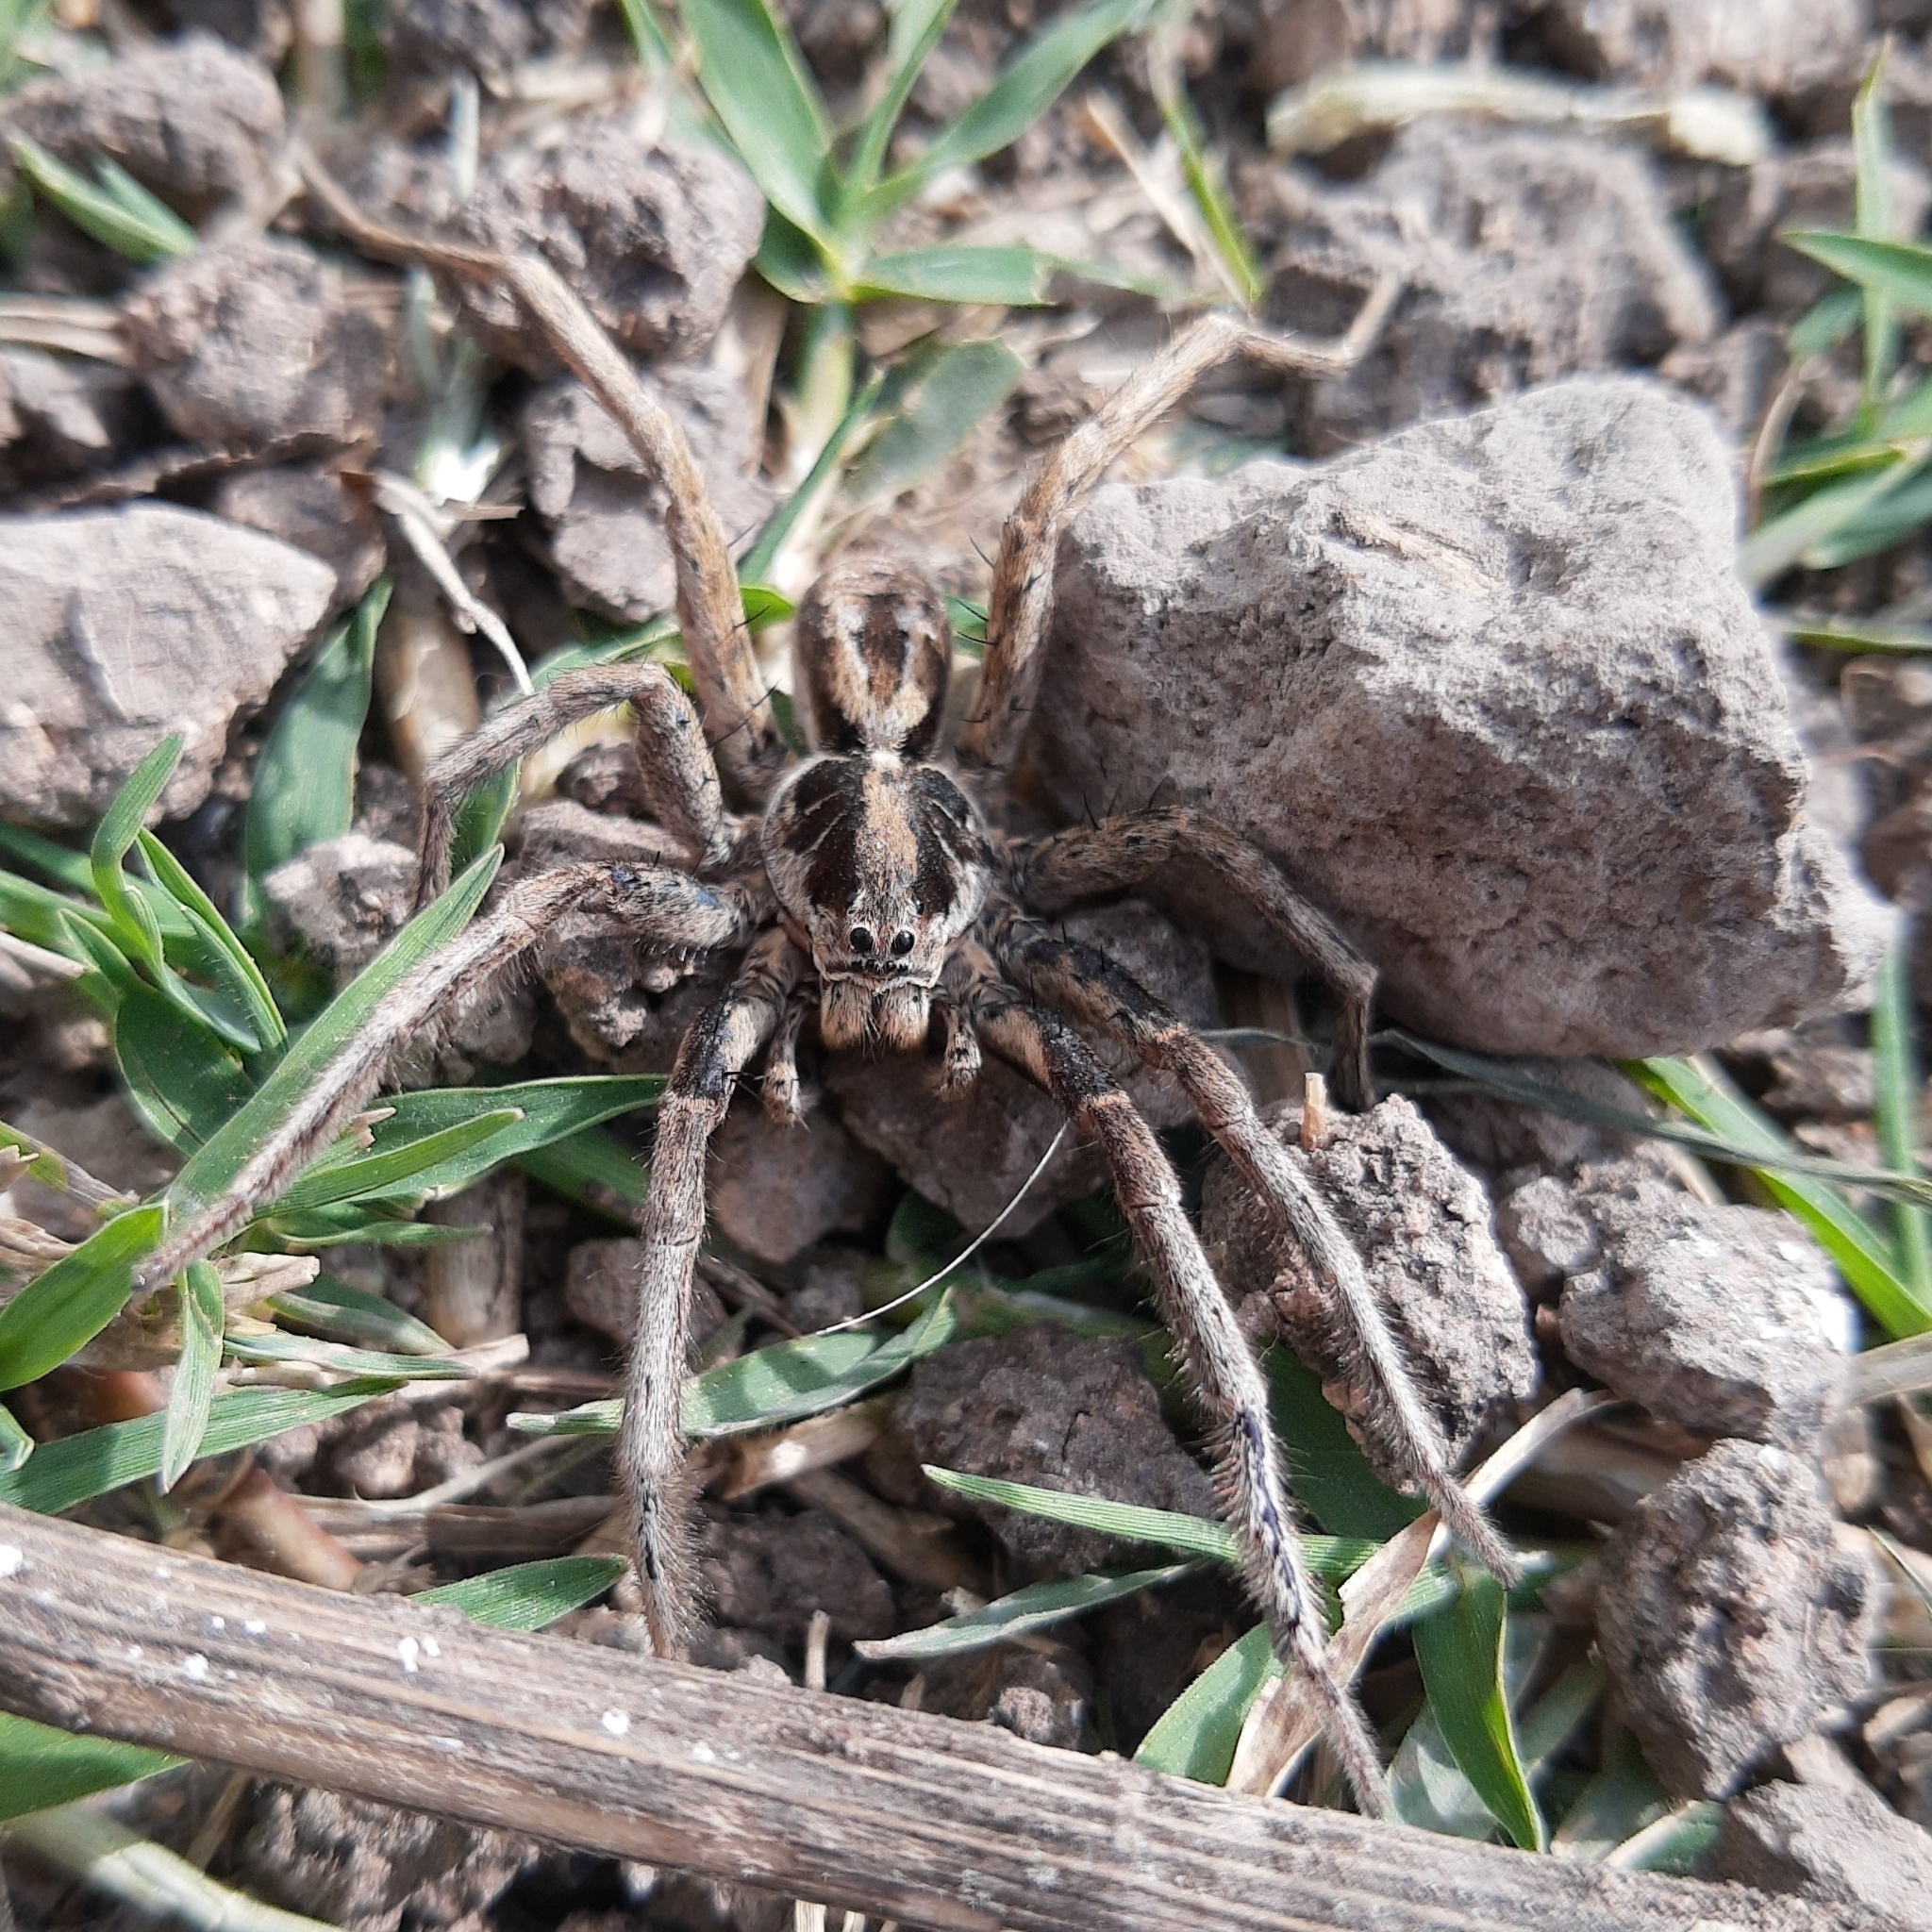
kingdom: Animalia
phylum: Arthropoda
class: Arachnida
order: Araneae
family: Lycosidae
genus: Schizocosa
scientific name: Schizocosa malitiosa
